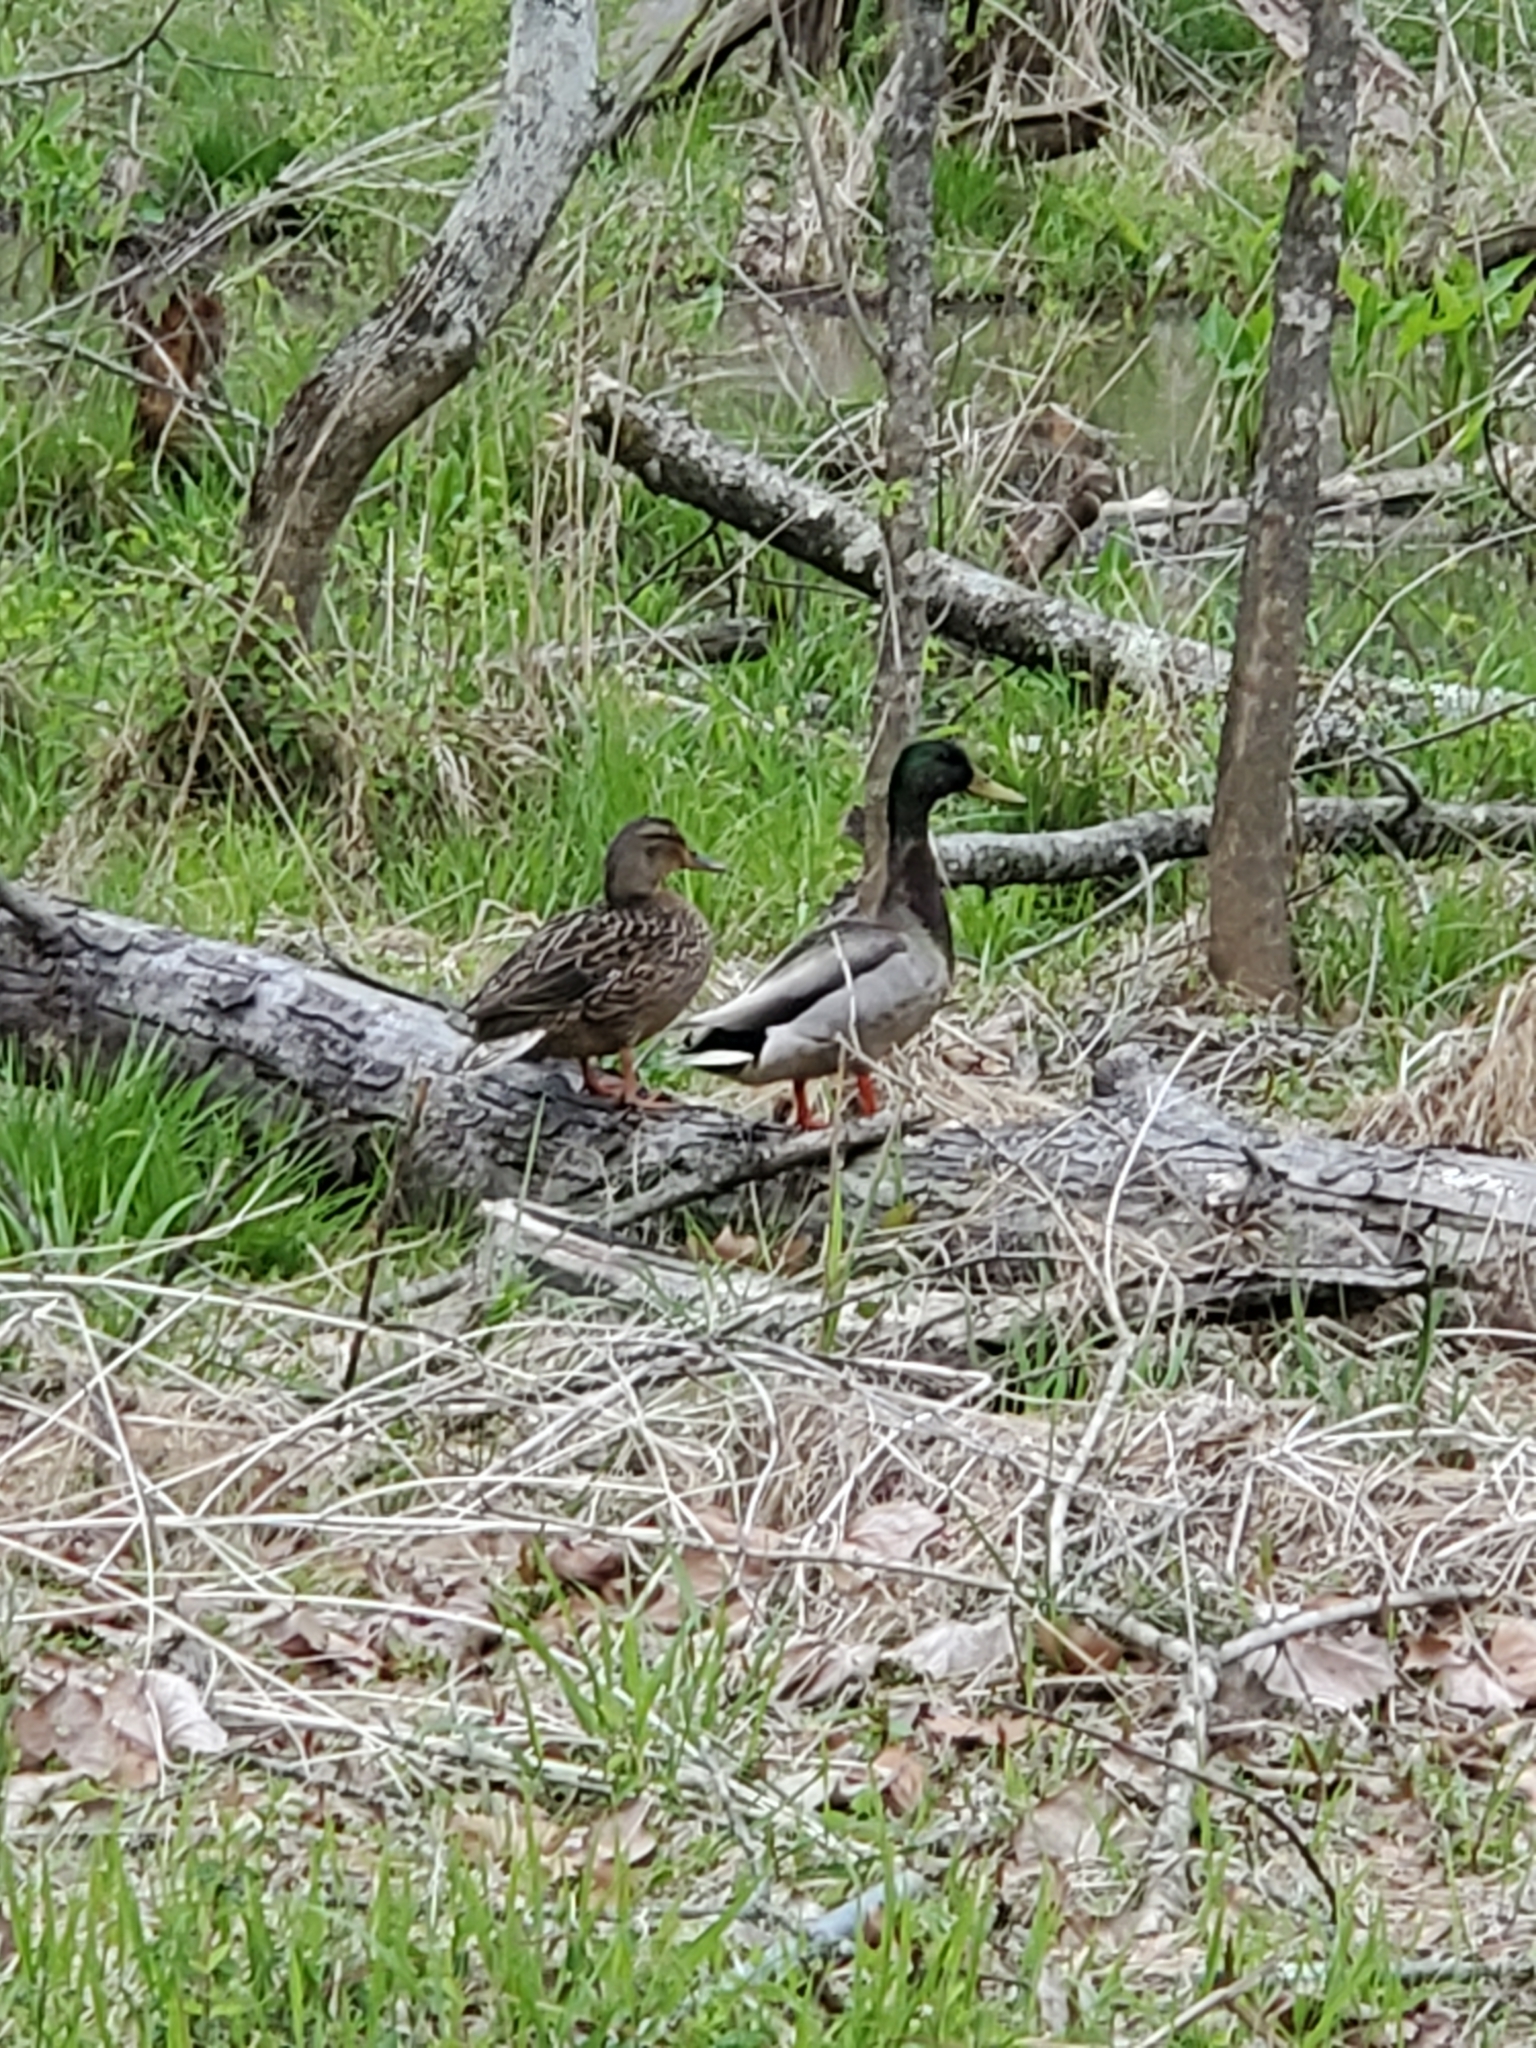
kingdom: Animalia
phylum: Chordata
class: Aves
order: Anseriformes
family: Anatidae
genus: Anas
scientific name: Anas platyrhynchos
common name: Mallard
